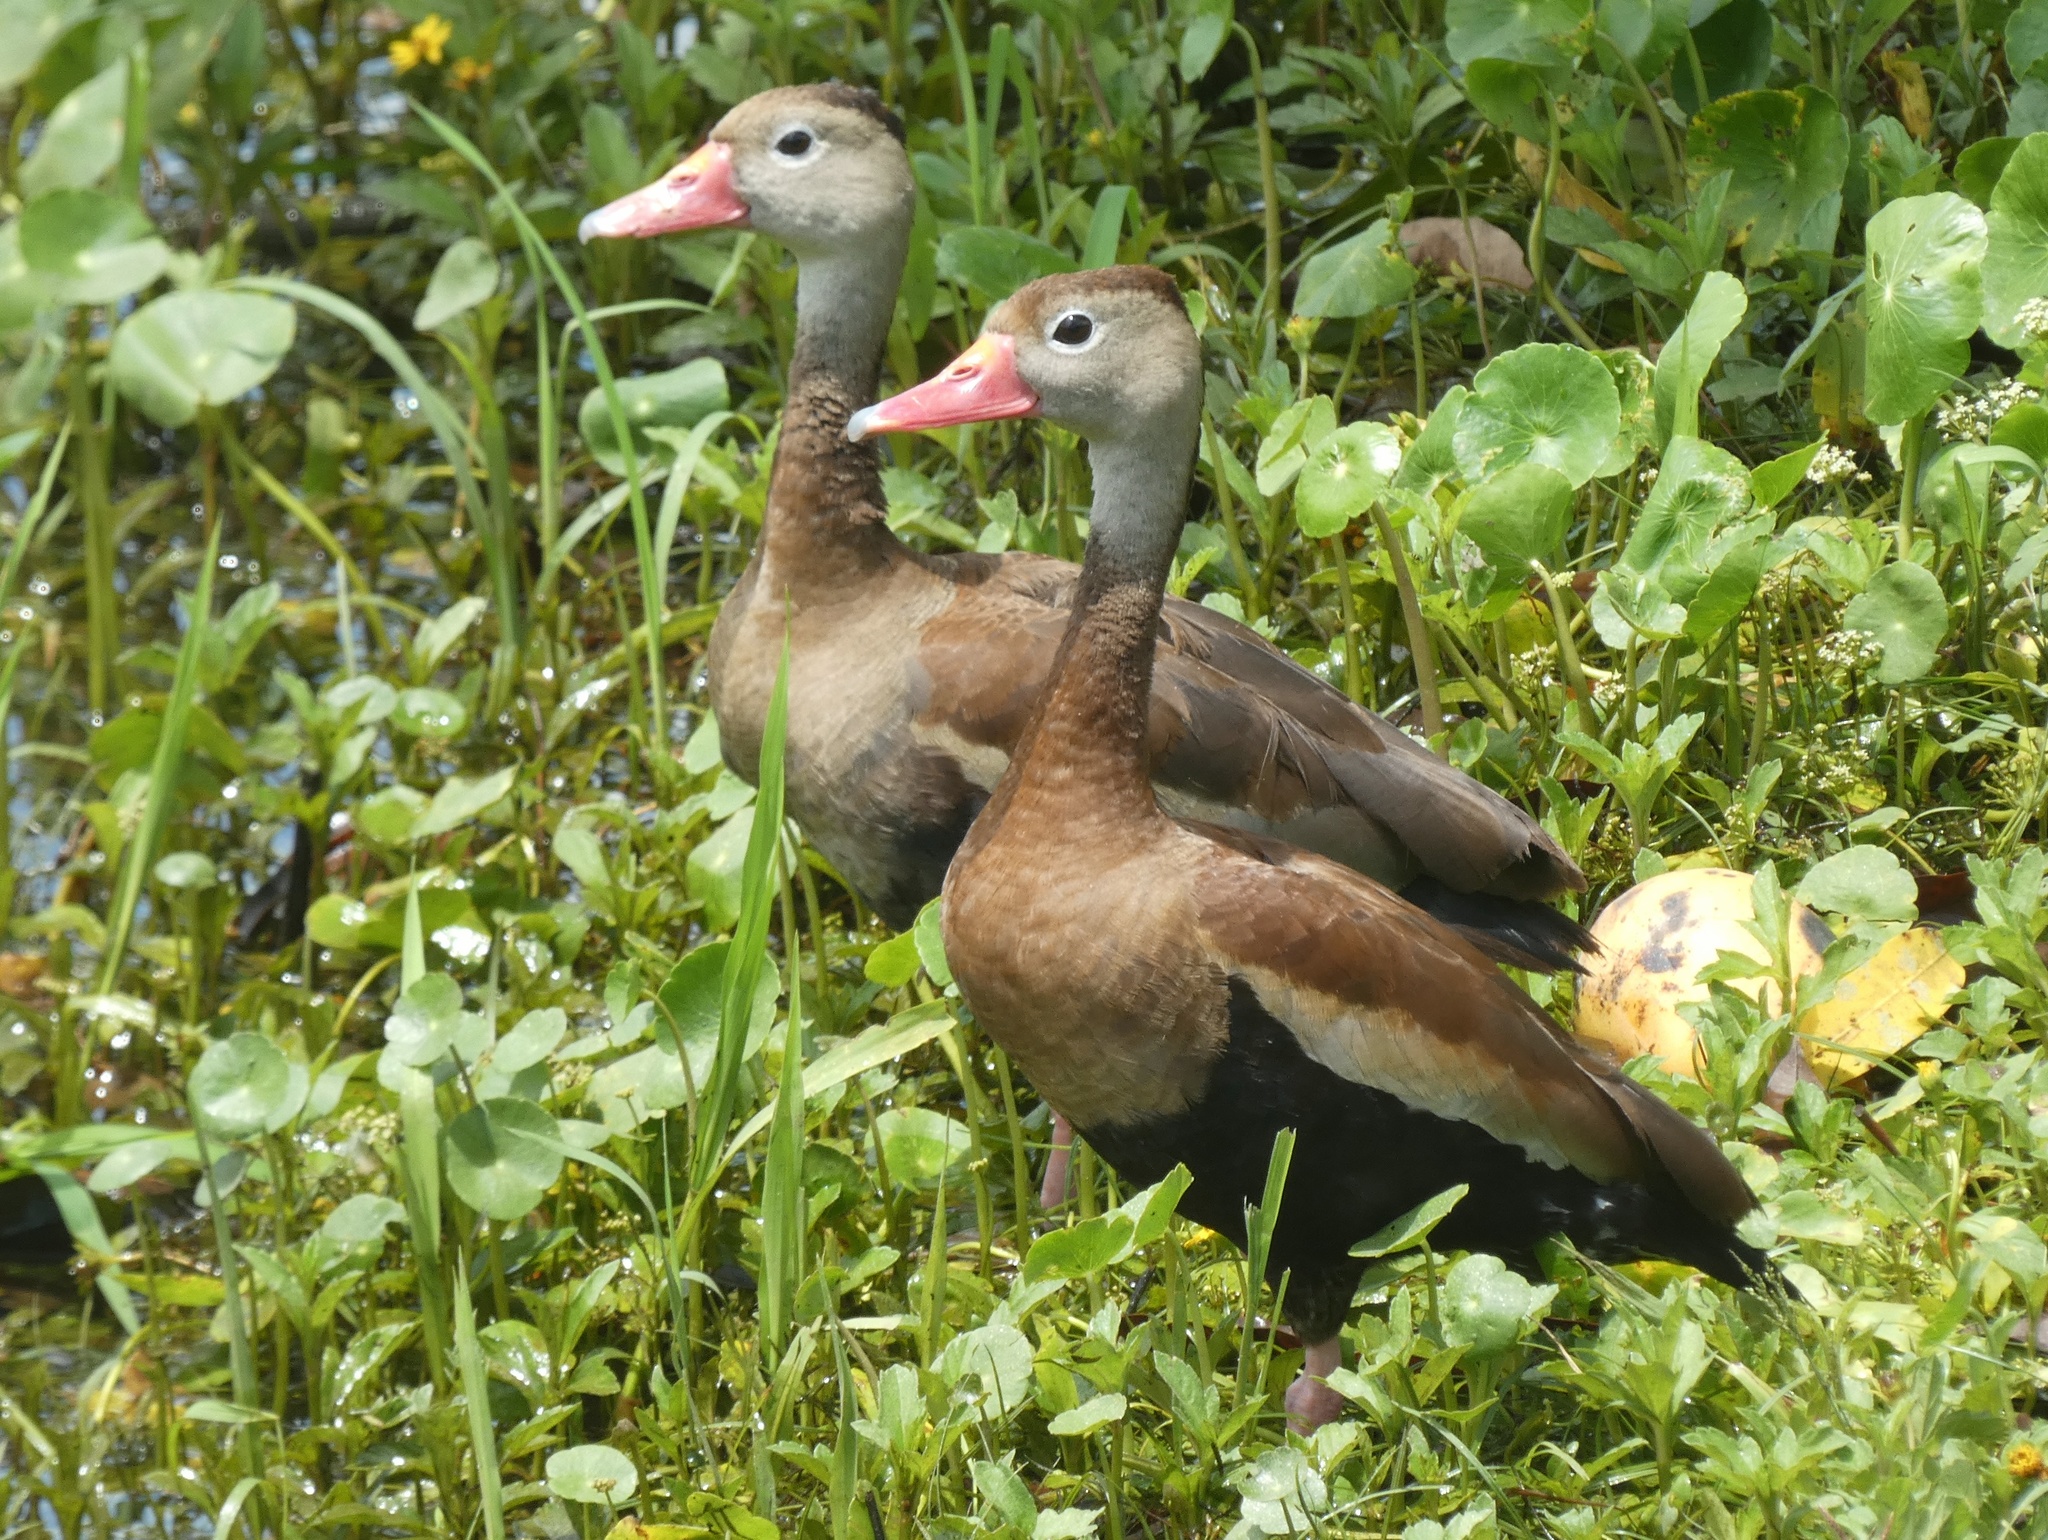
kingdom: Animalia
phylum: Chordata
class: Aves
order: Anseriformes
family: Anatidae
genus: Dendrocygna
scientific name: Dendrocygna autumnalis
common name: Black-bellied whistling duck
